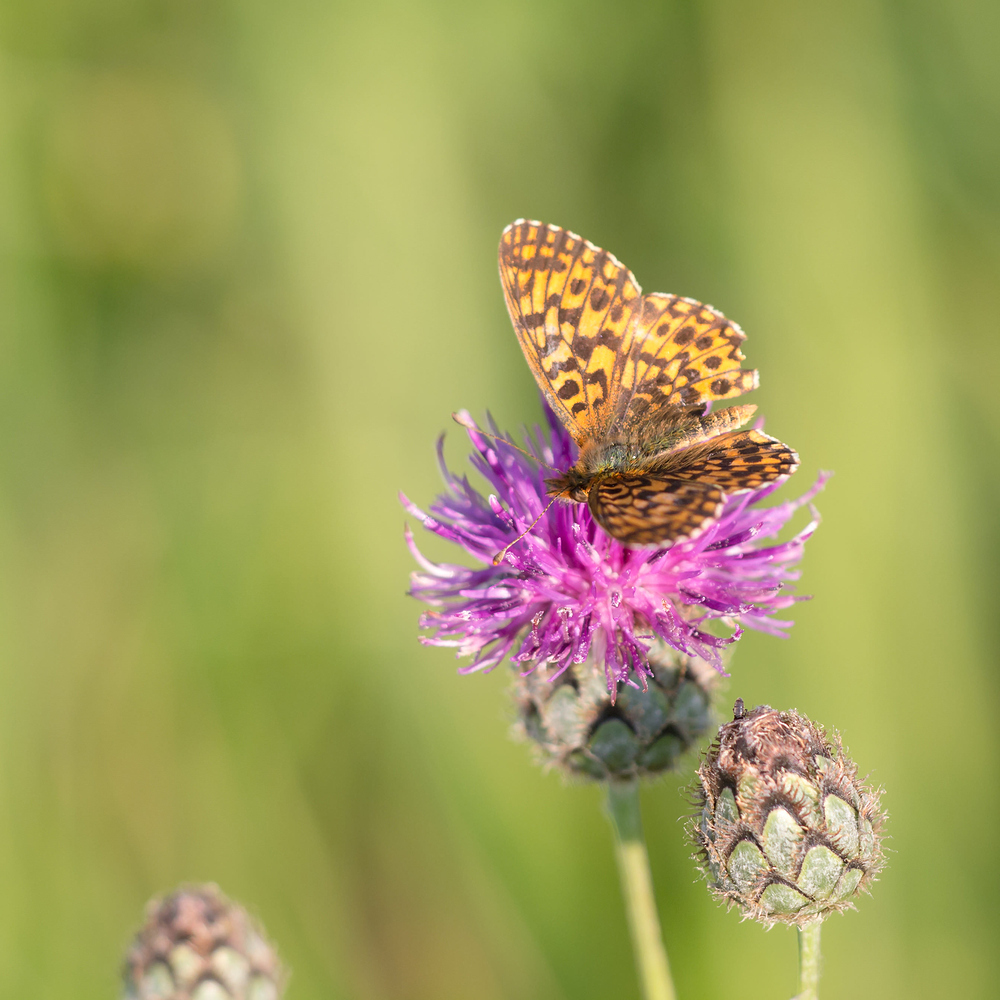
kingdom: Animalia
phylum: Arthropoda
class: Insecta
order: Lepidoptera
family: Nymphalidae
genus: Boloria
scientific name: Boloria dia
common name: Weaver's fritillary
